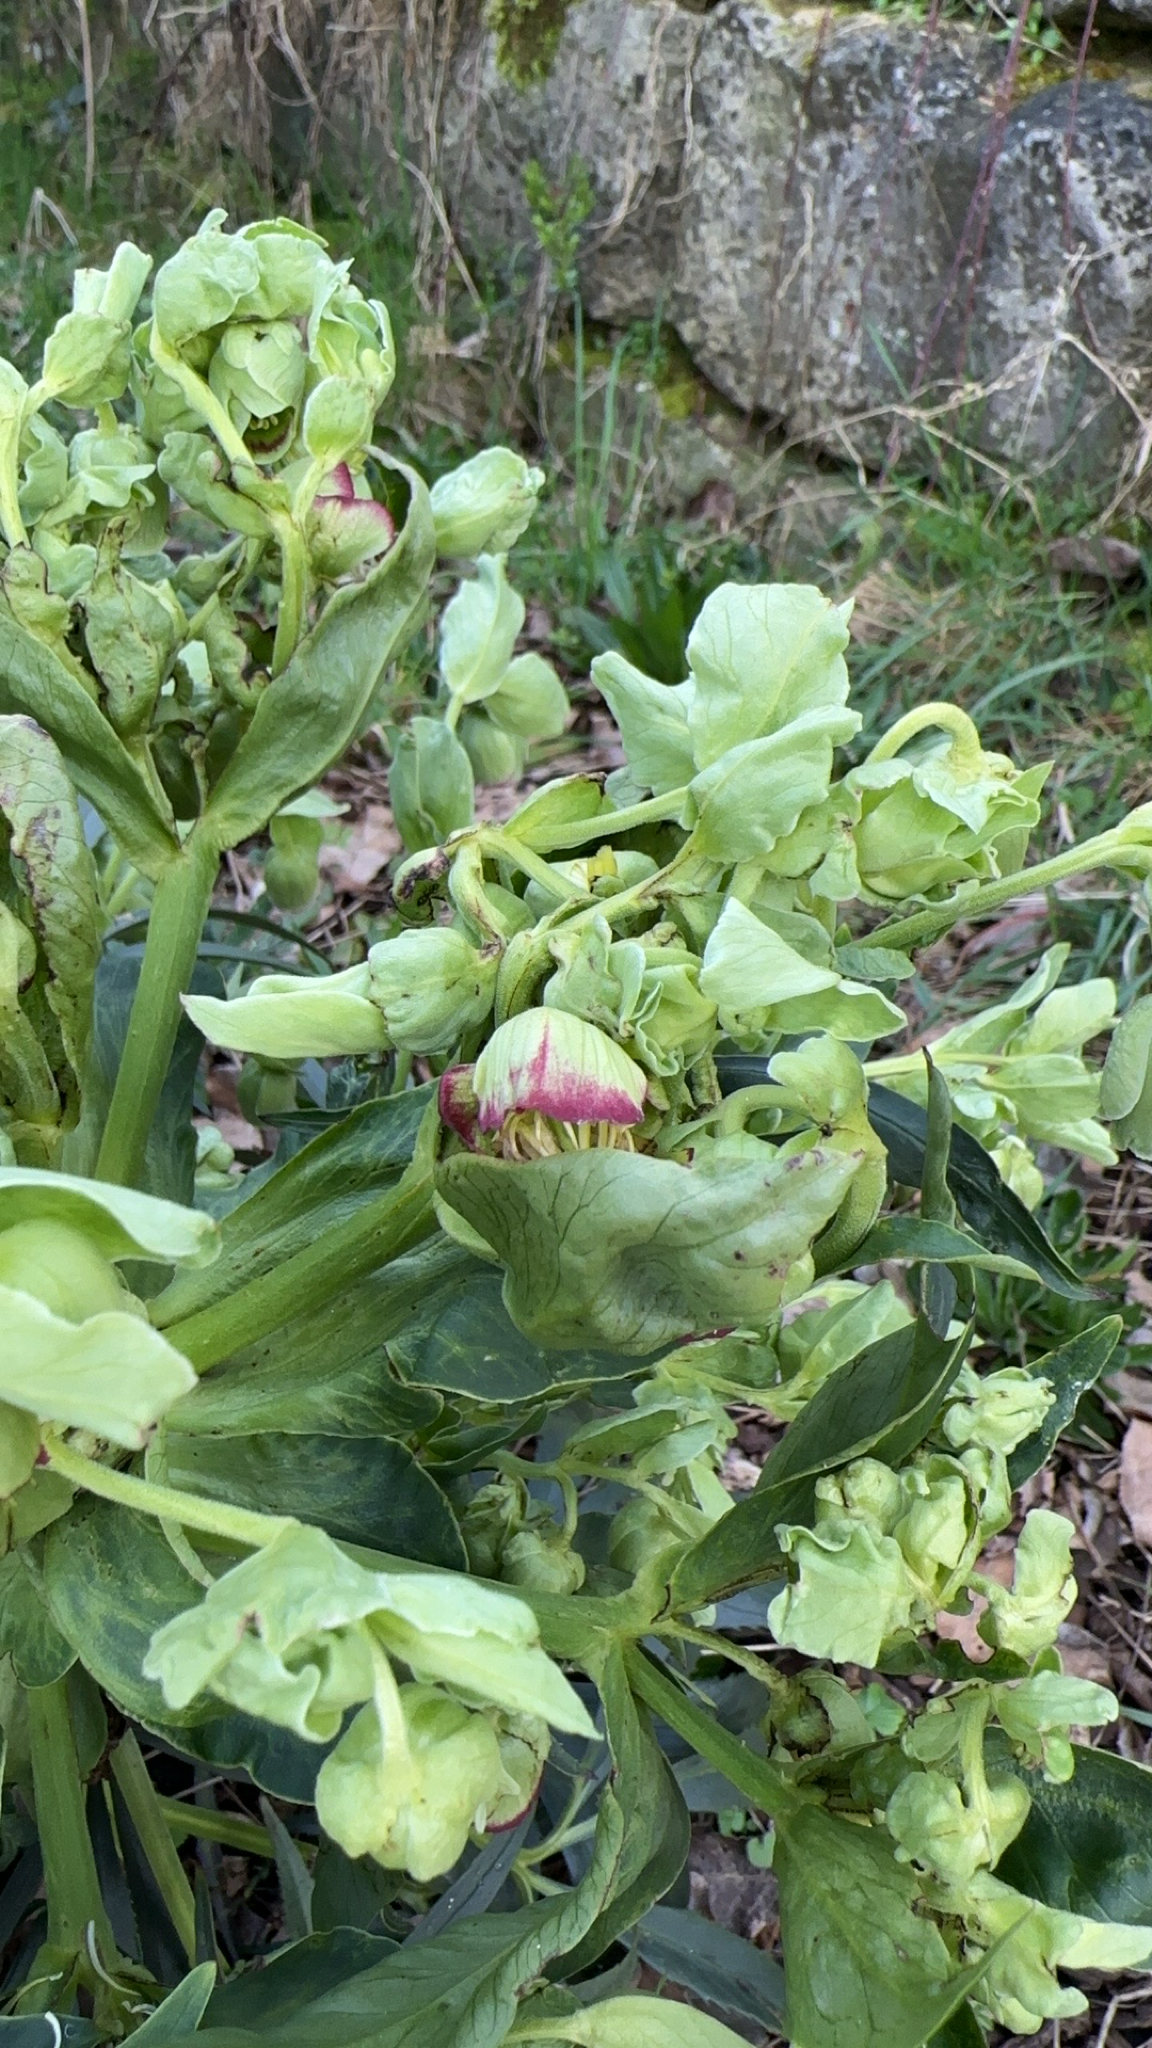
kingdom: Plantae
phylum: Tracheophyta
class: Magnoliopsida
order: Ranunculales
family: Ranunculaceae
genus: Helleborus
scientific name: Helleborus foetidus
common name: Stinking hellebore
